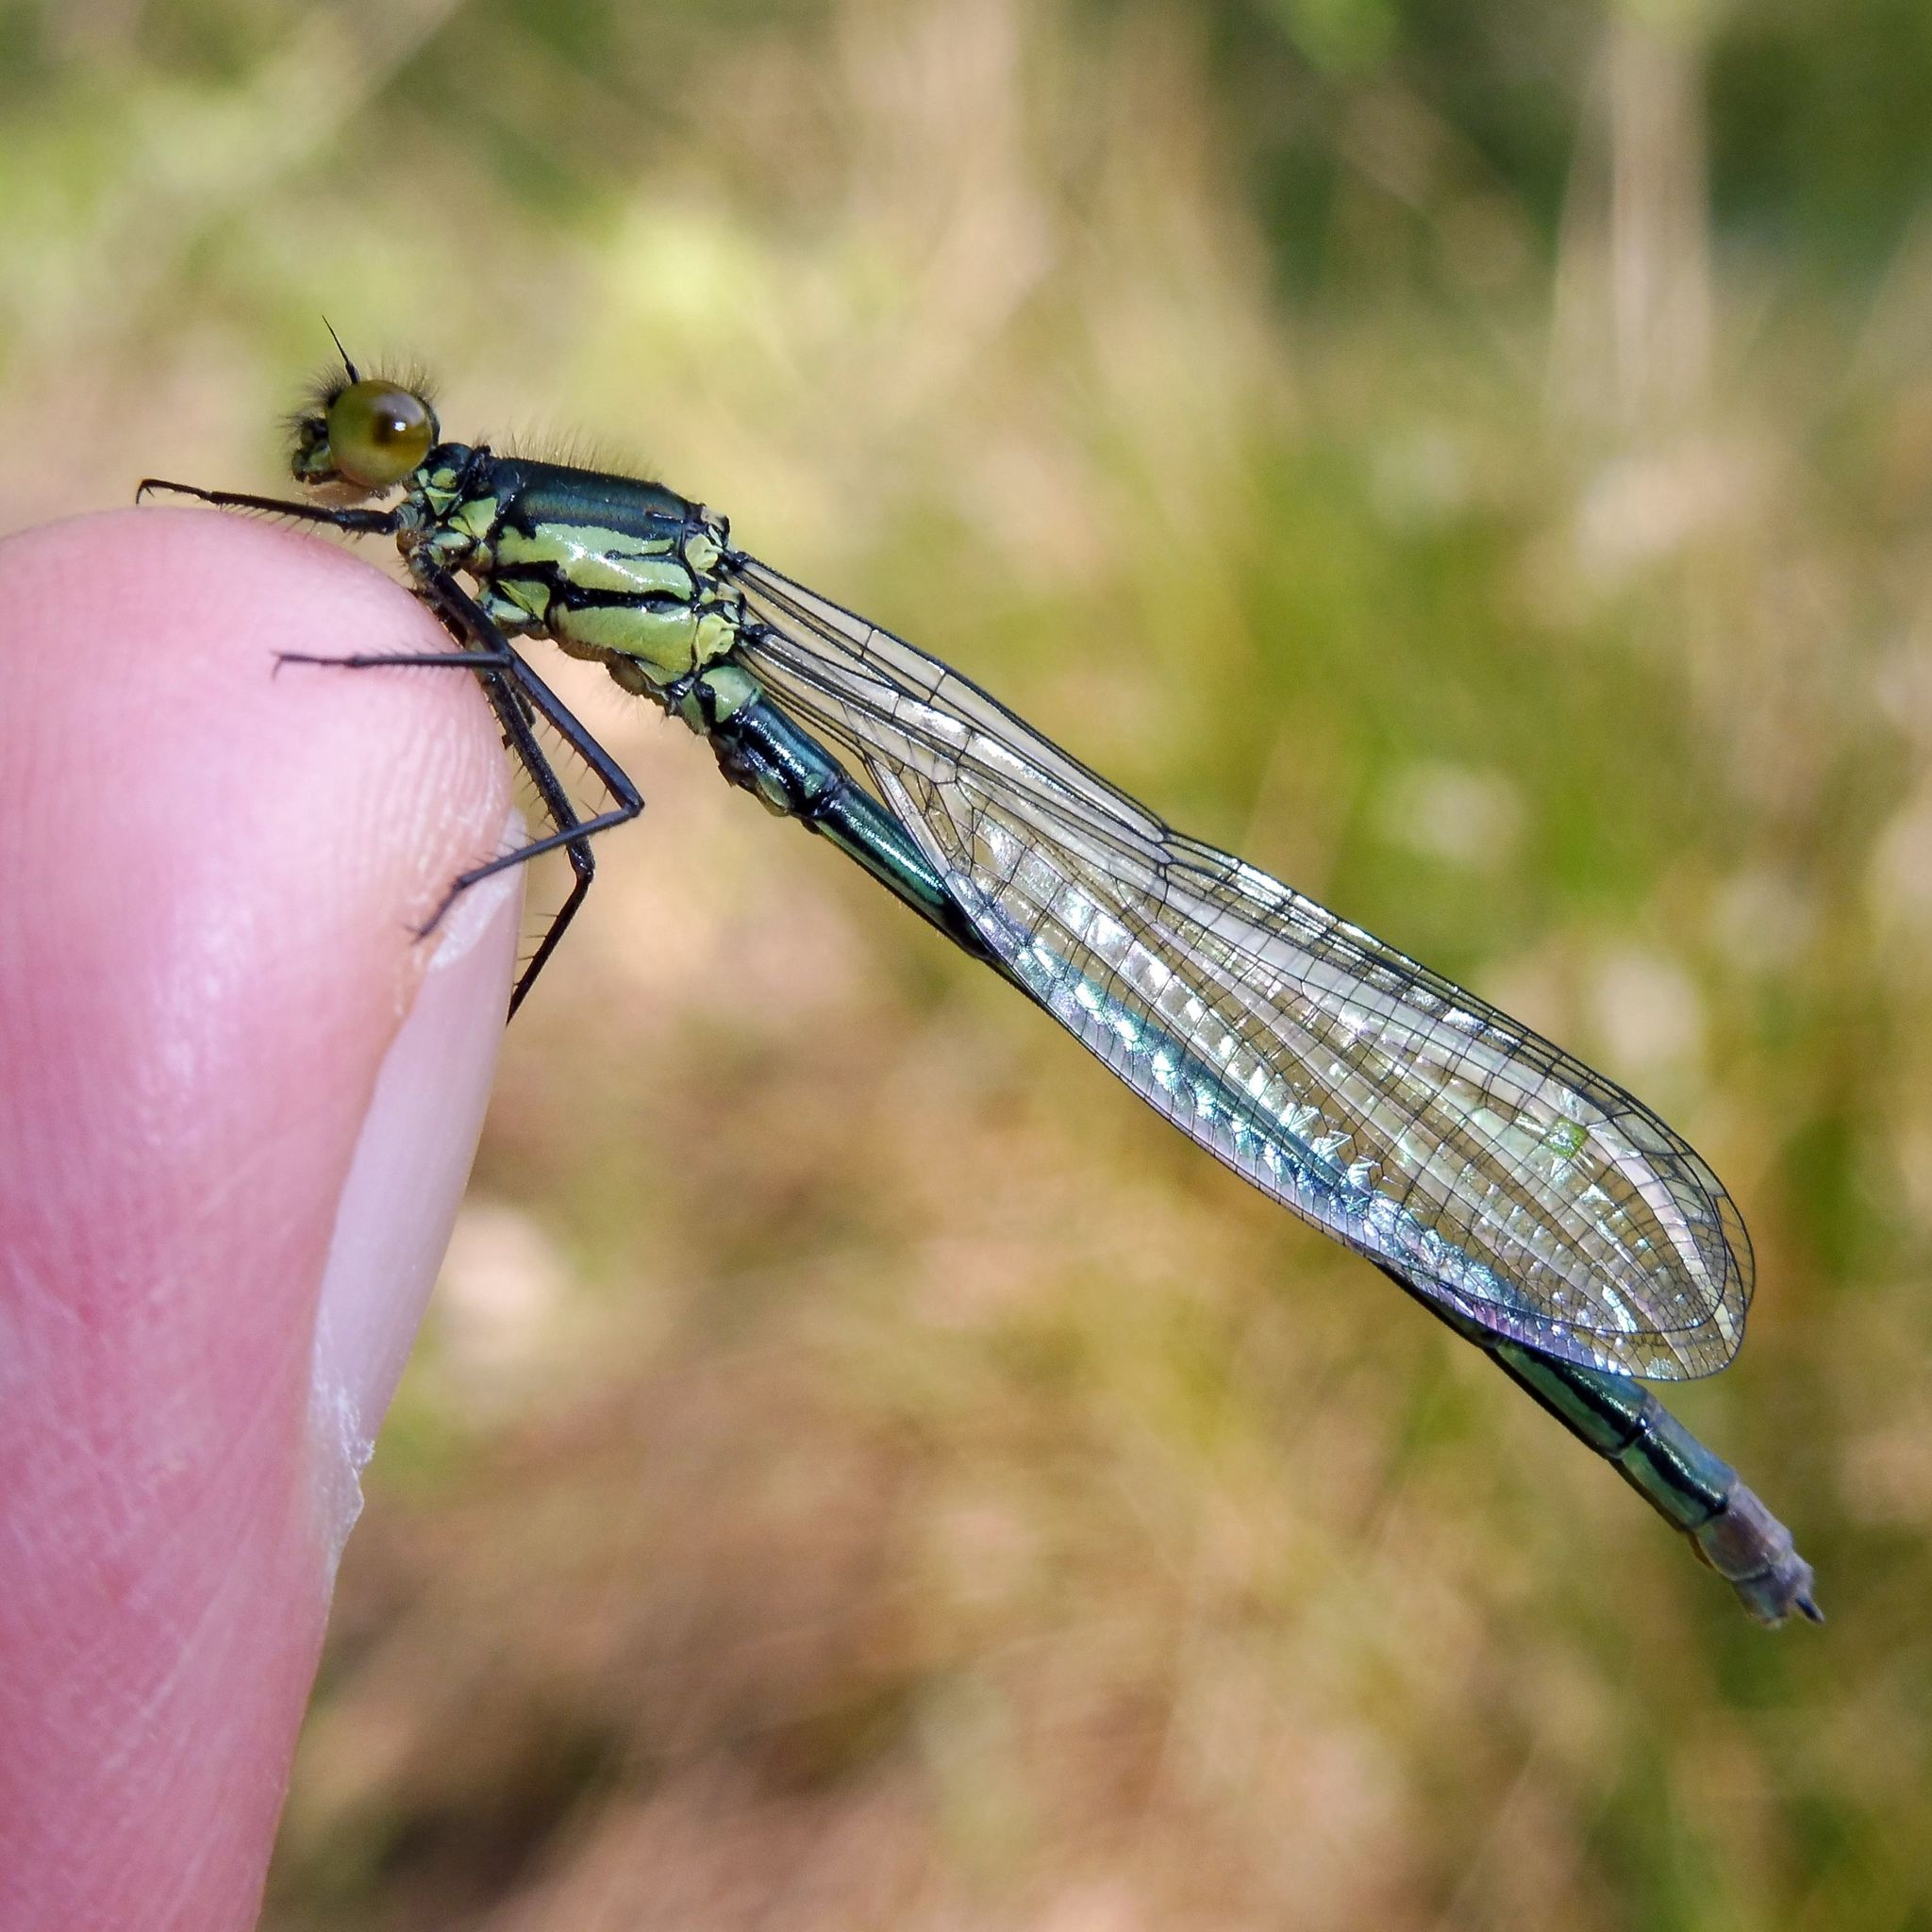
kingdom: Animalia
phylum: Arthropoda
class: Insecta
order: Odonata
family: Coenagrionidae
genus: Erythromma
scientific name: Erythromma najas
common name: Red-eyed damselfly
